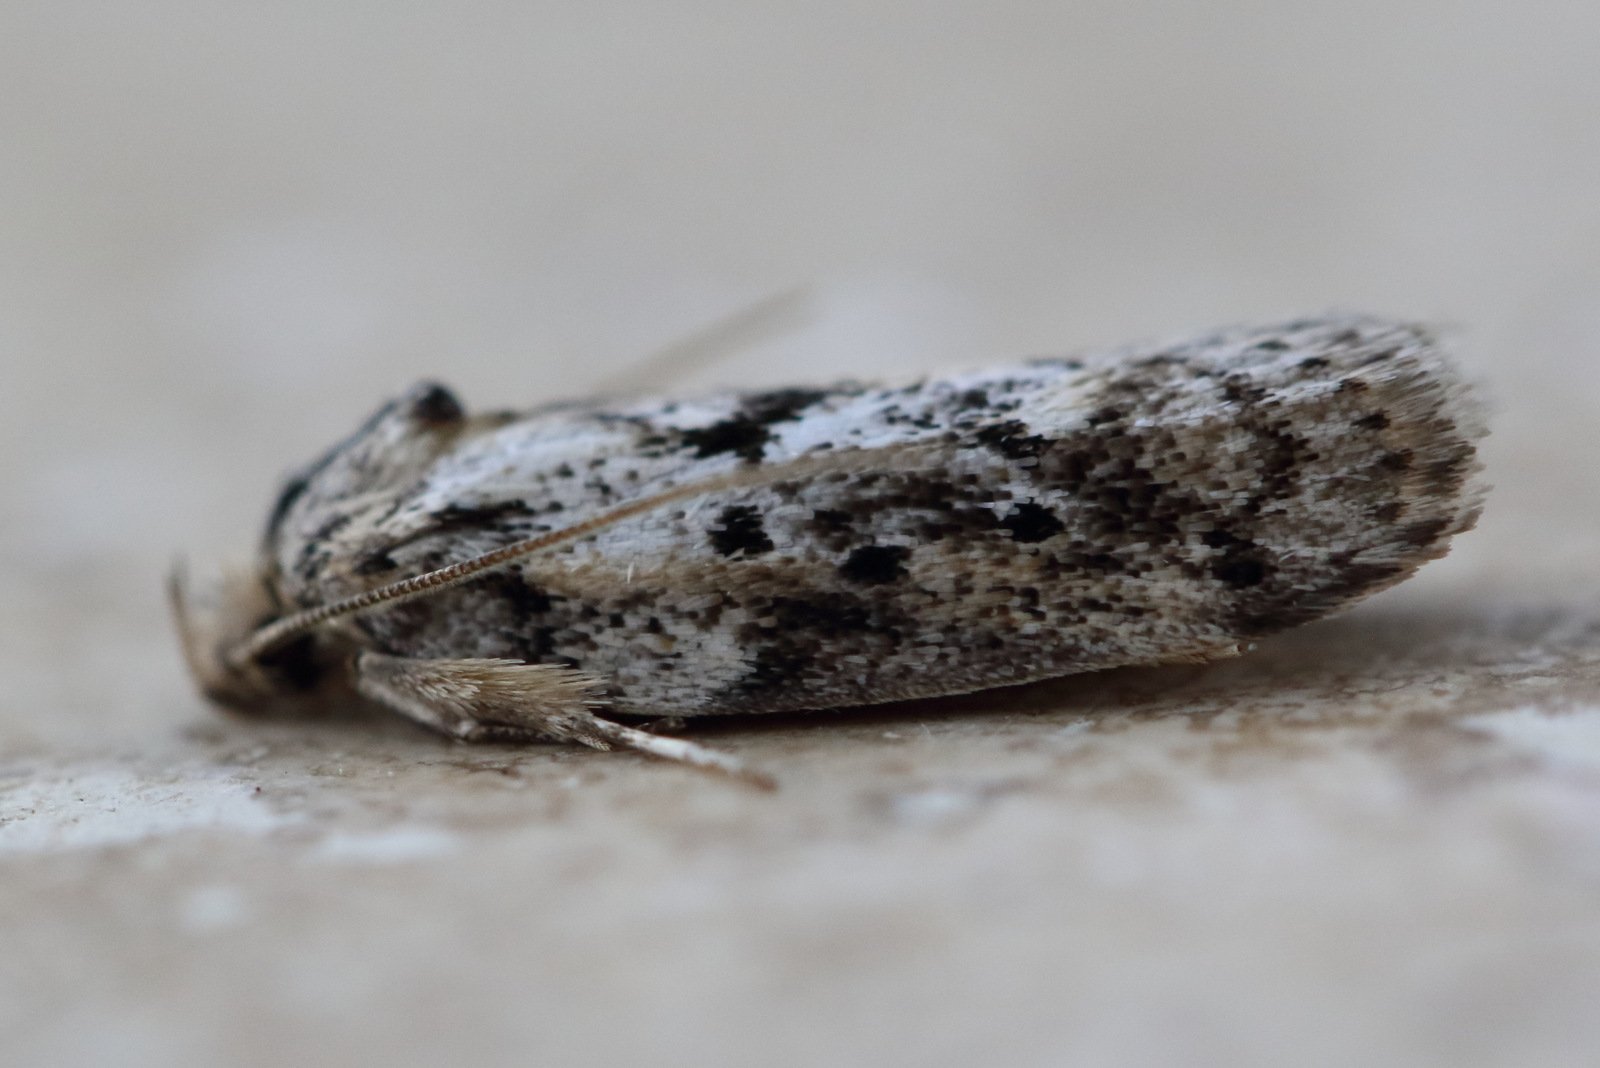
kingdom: Animalia
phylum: Arthropoda
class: Insecta
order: Lepidoptera
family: Oecophoridae
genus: Philobota
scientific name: Philobota baryptera
